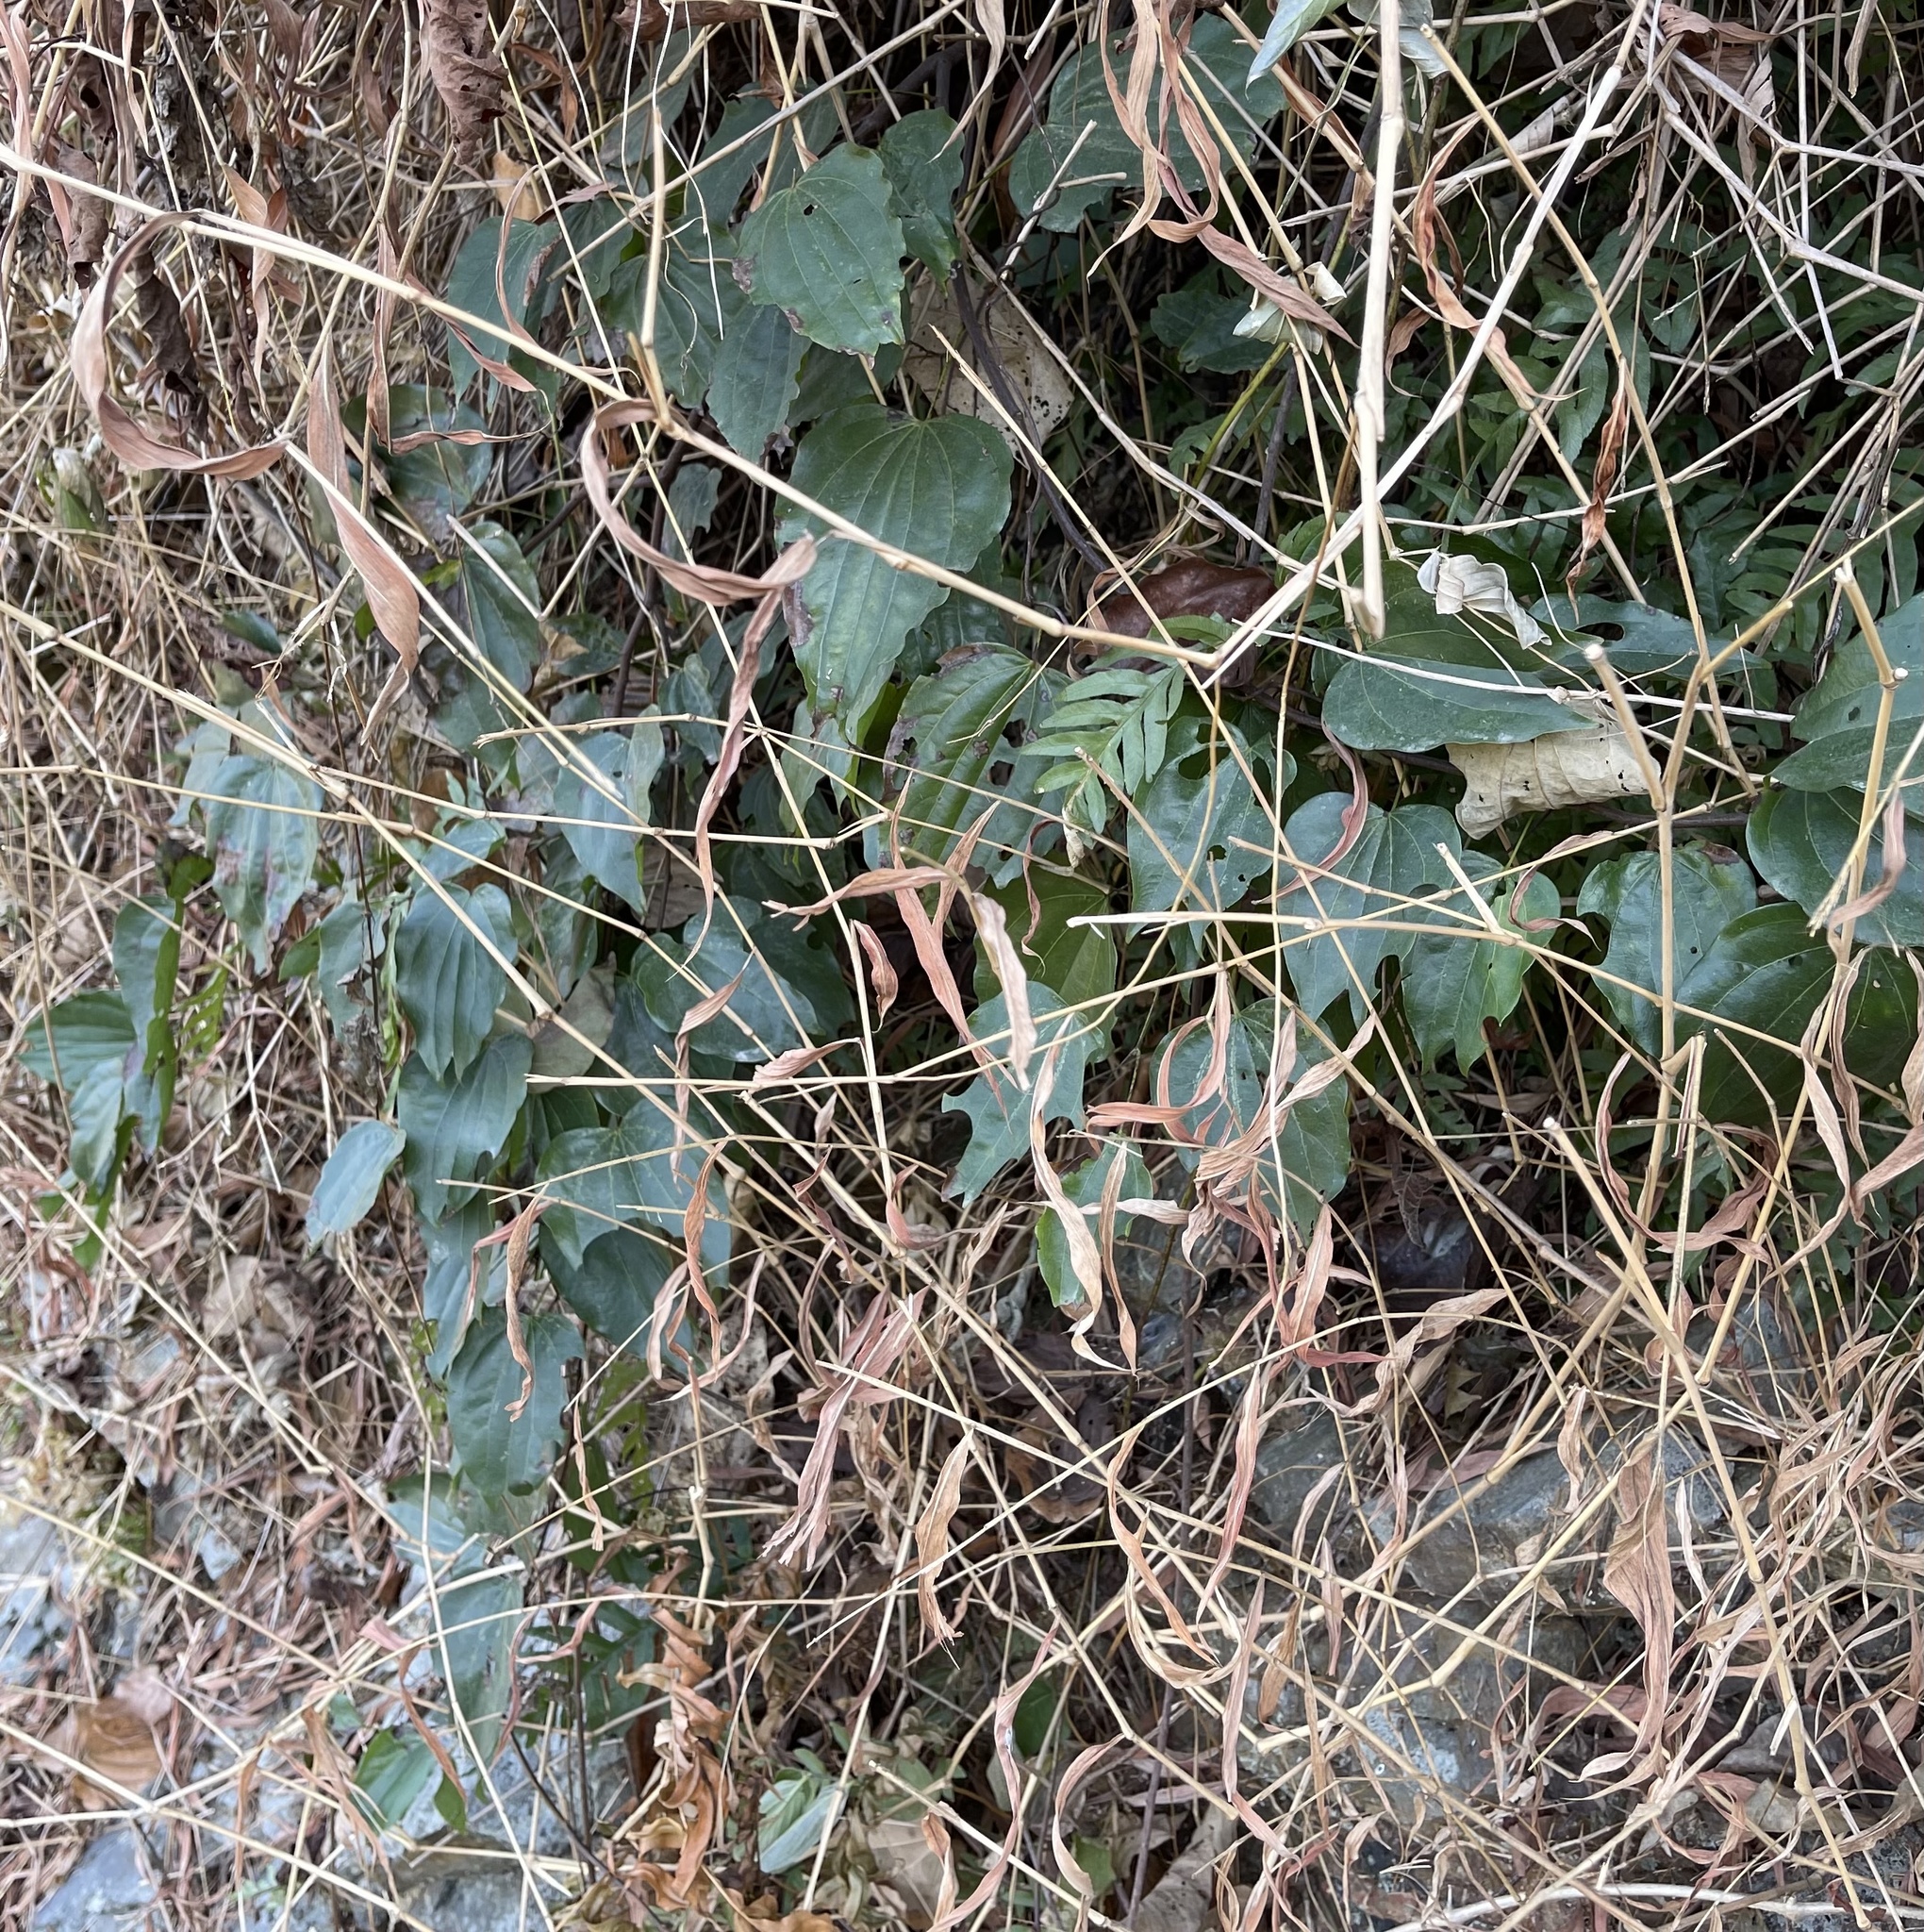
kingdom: Plantae
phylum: Tracheophyta
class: Magnoliopsida
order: Fabales
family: Fabaceae
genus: Phanera
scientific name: Phanera championii
